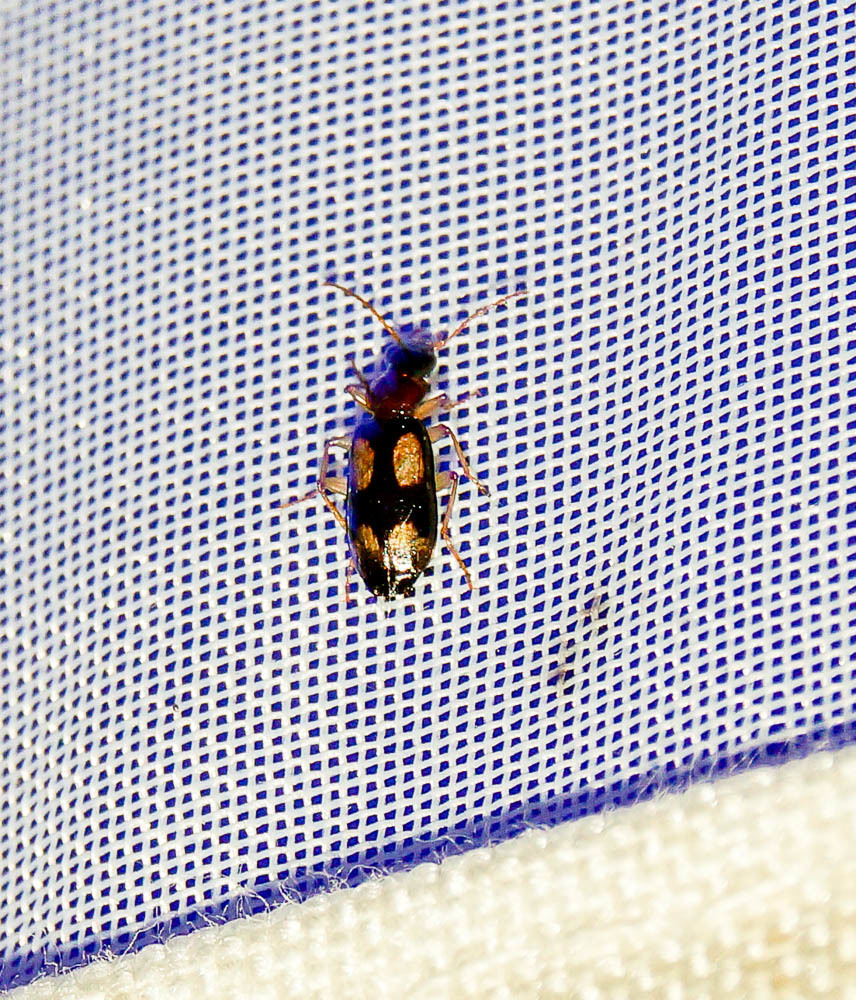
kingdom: Animalia
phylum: Arthropoda
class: Insecta
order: Coleoptera
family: Carabidae
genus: Dromius
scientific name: Dromius quadrimaculatus
